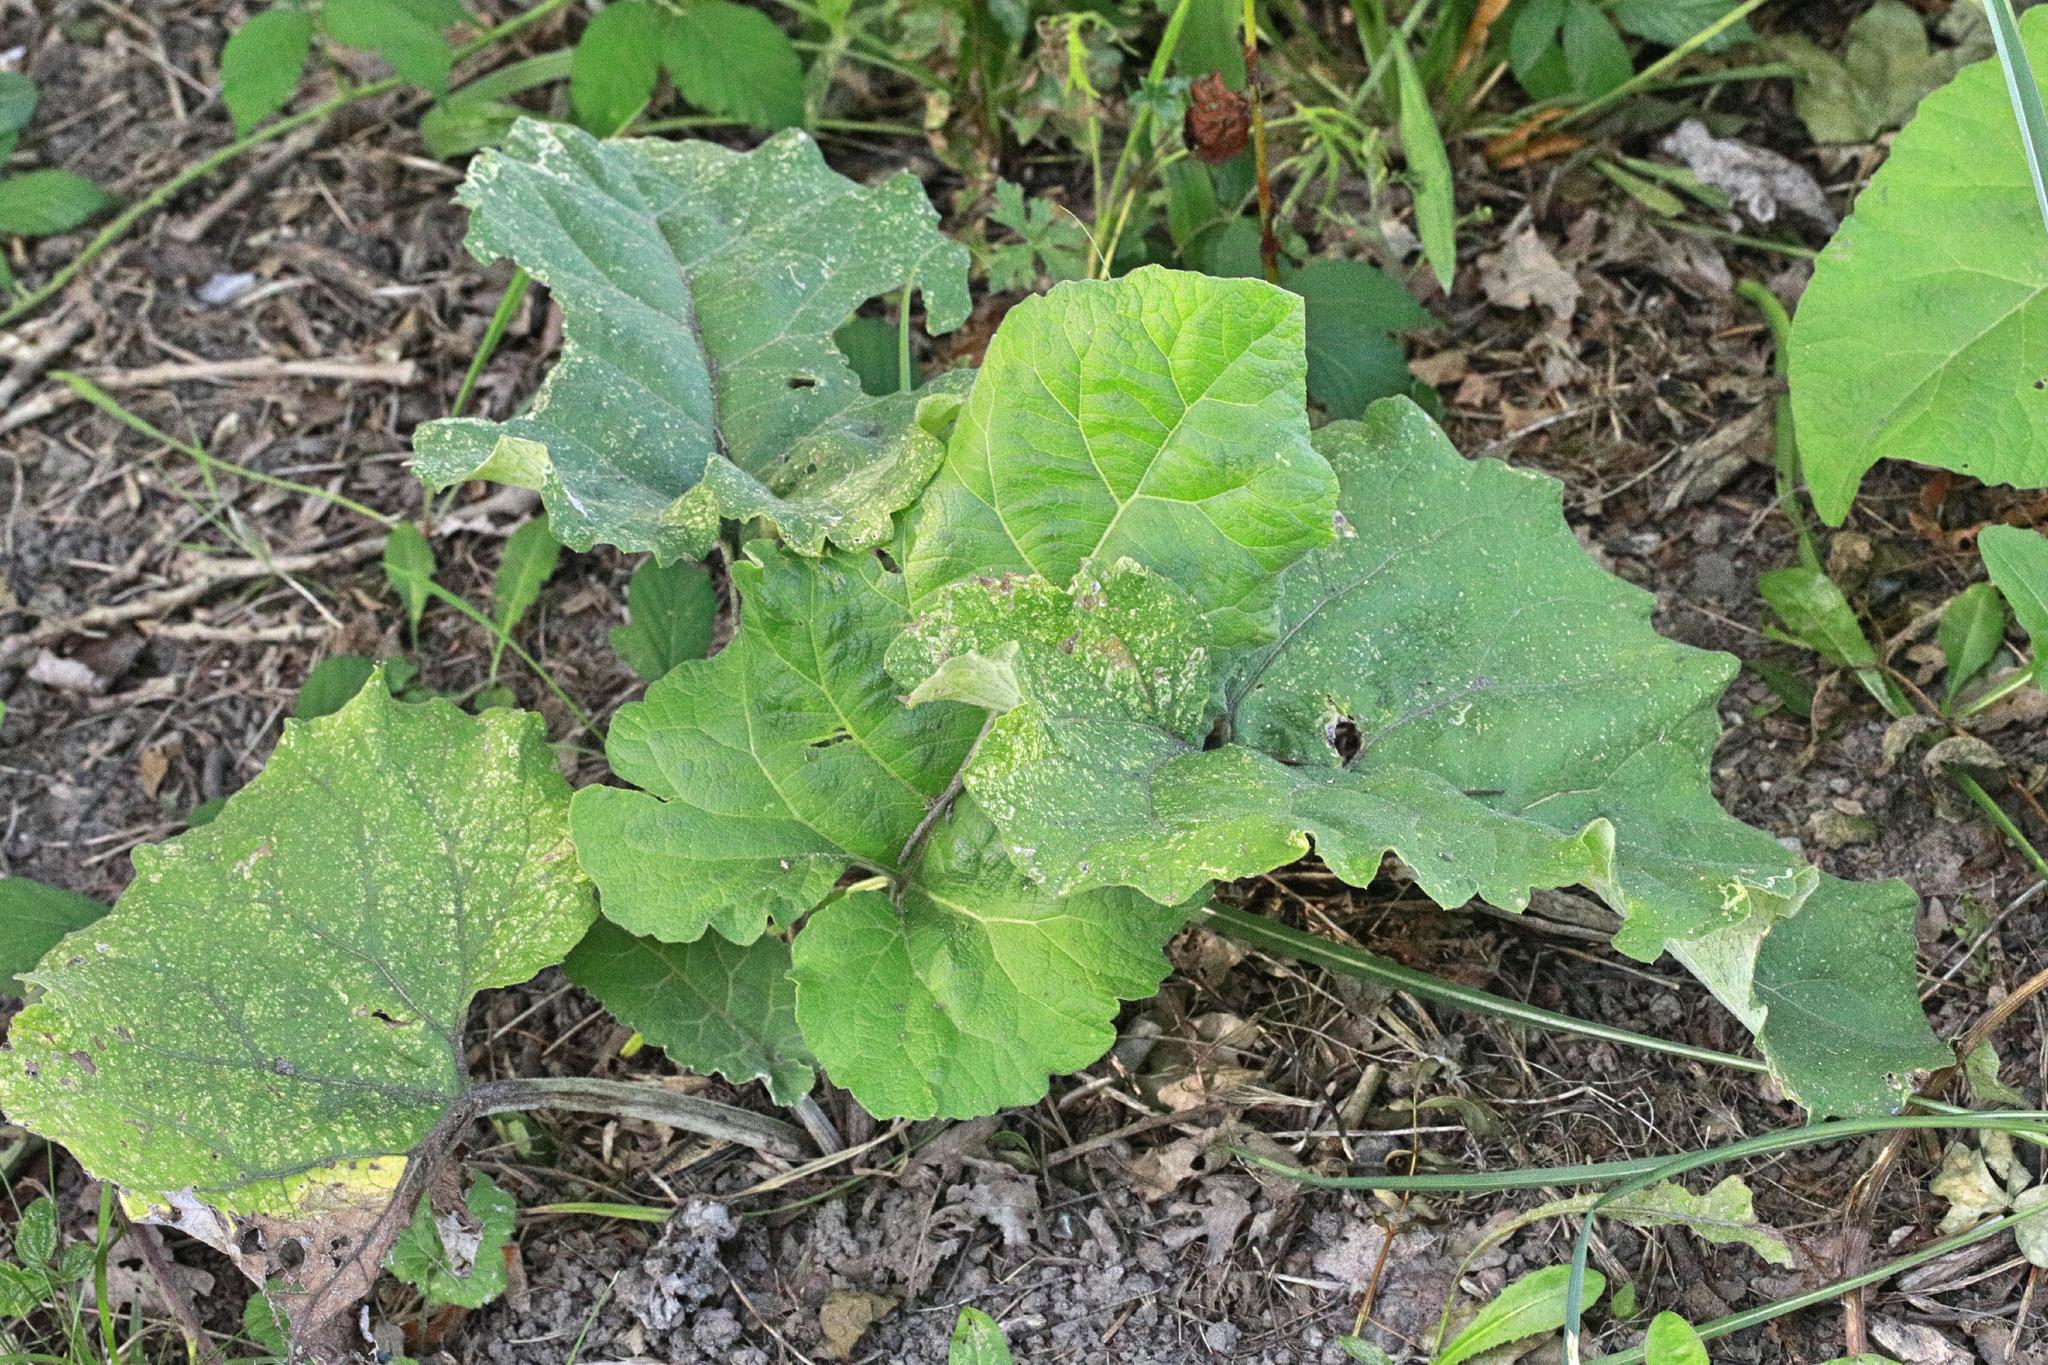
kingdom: Plantae
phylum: Tracheophyta
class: Magnoliopsida
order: Asterales
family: Asteraceae
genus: Arctium
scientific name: Arctium minus
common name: Lesser burdock
